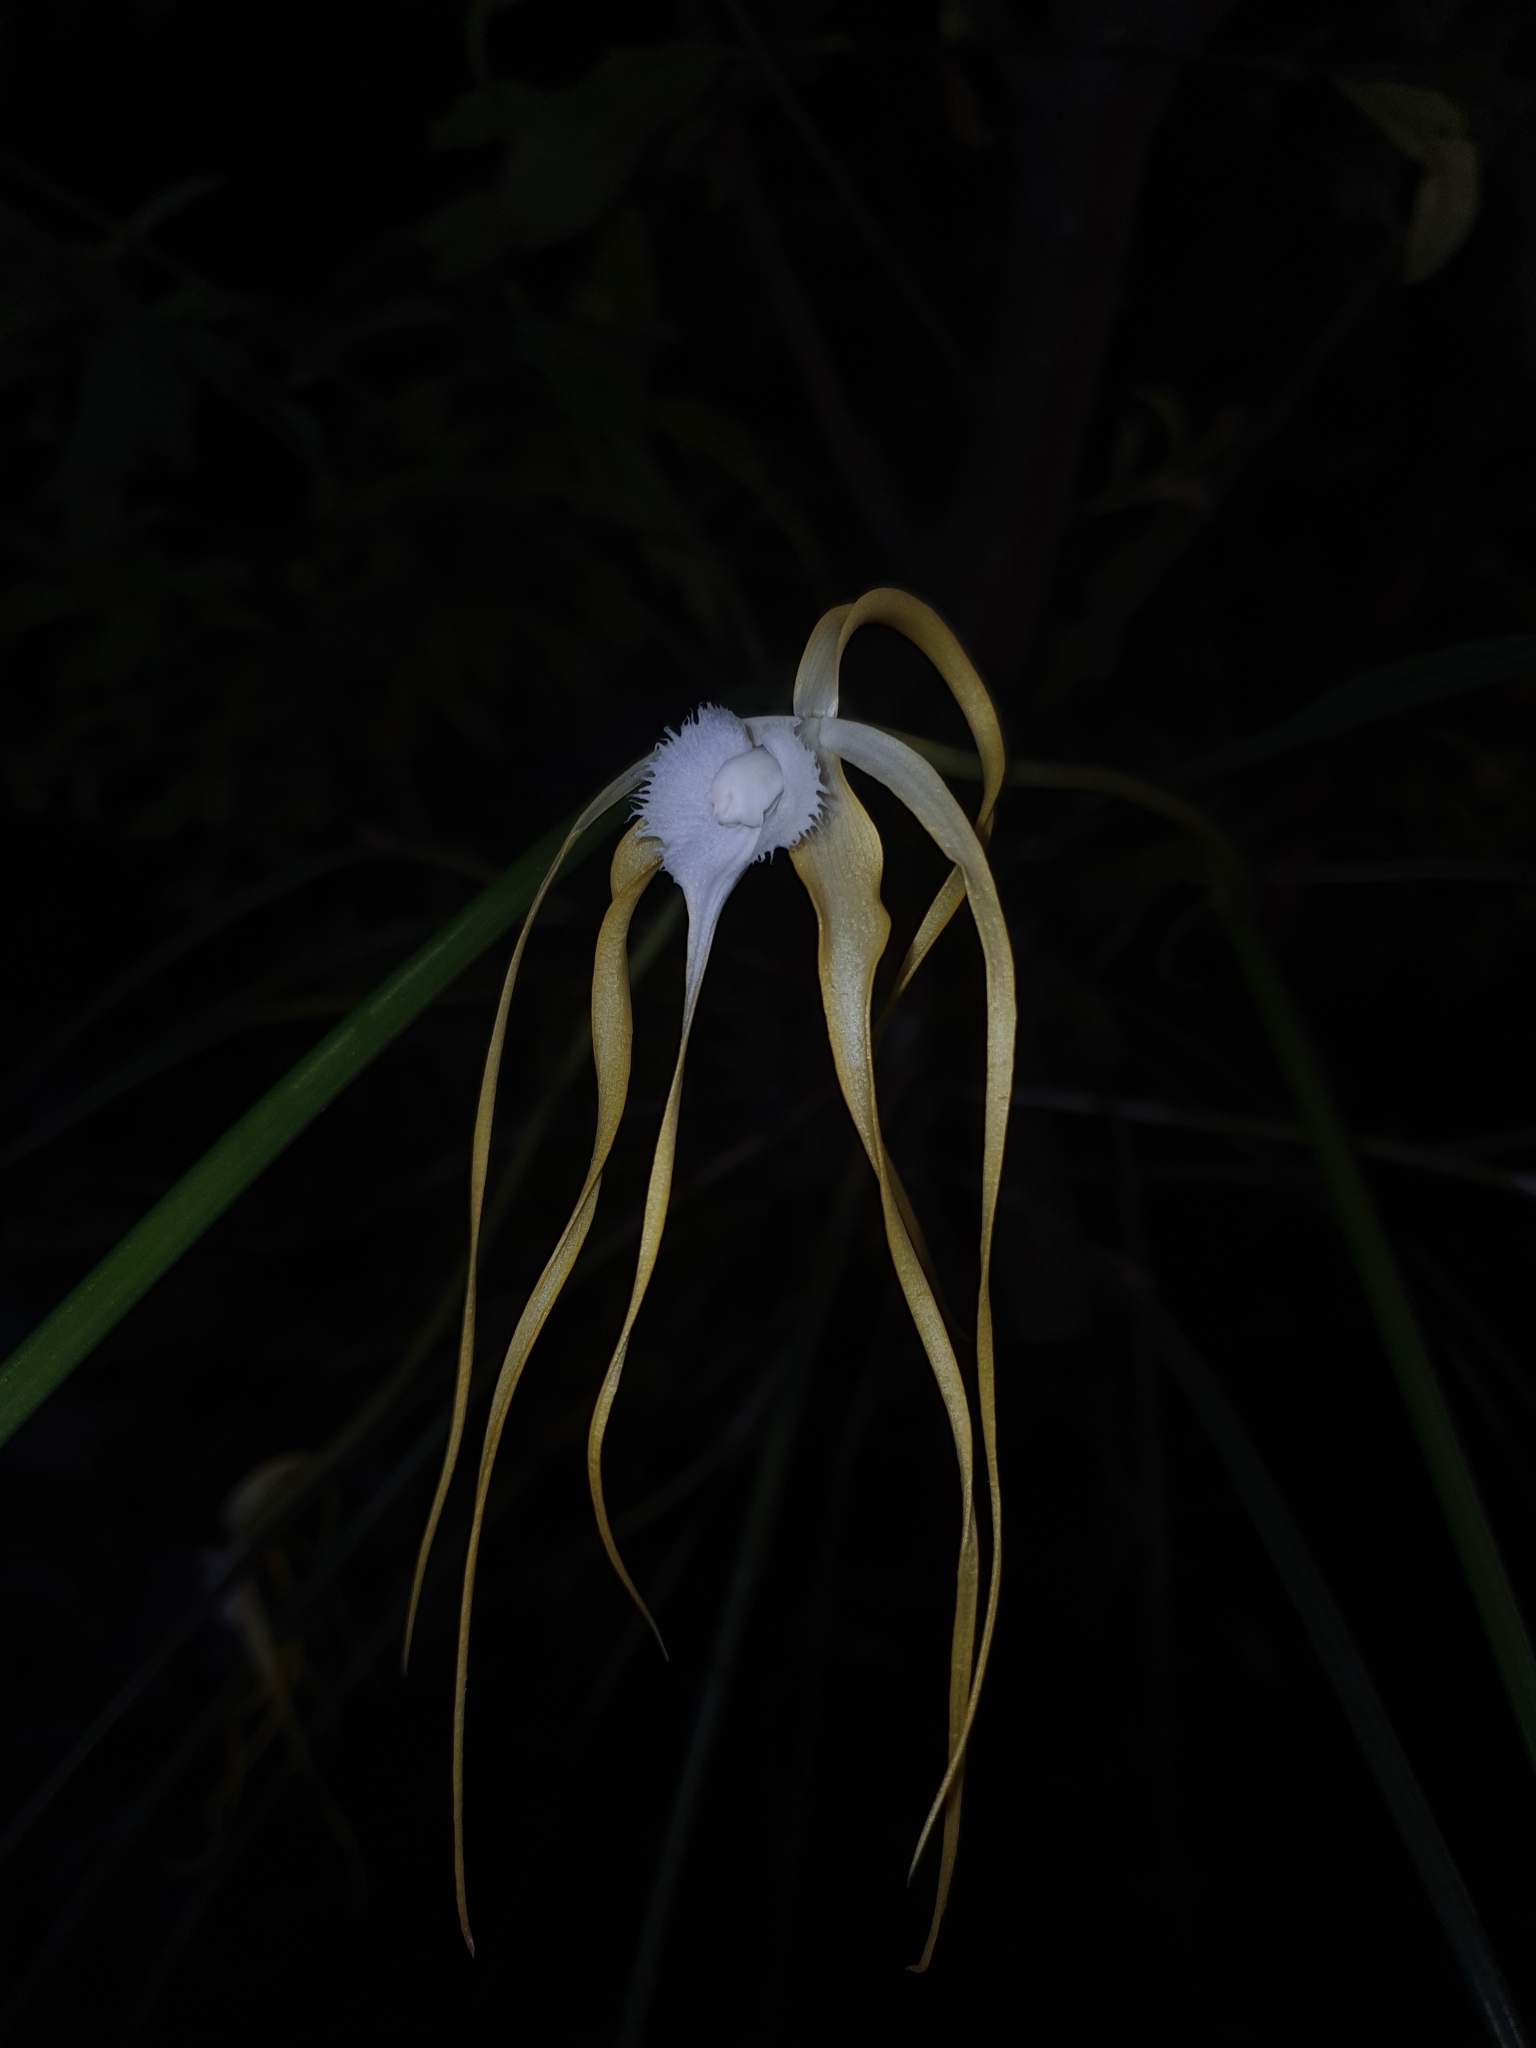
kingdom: Plantae
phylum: Tracheophyta
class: Liliopsida
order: Asparagales
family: Orchidaceae
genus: Brassavola
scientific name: Brassavola appendiculata
